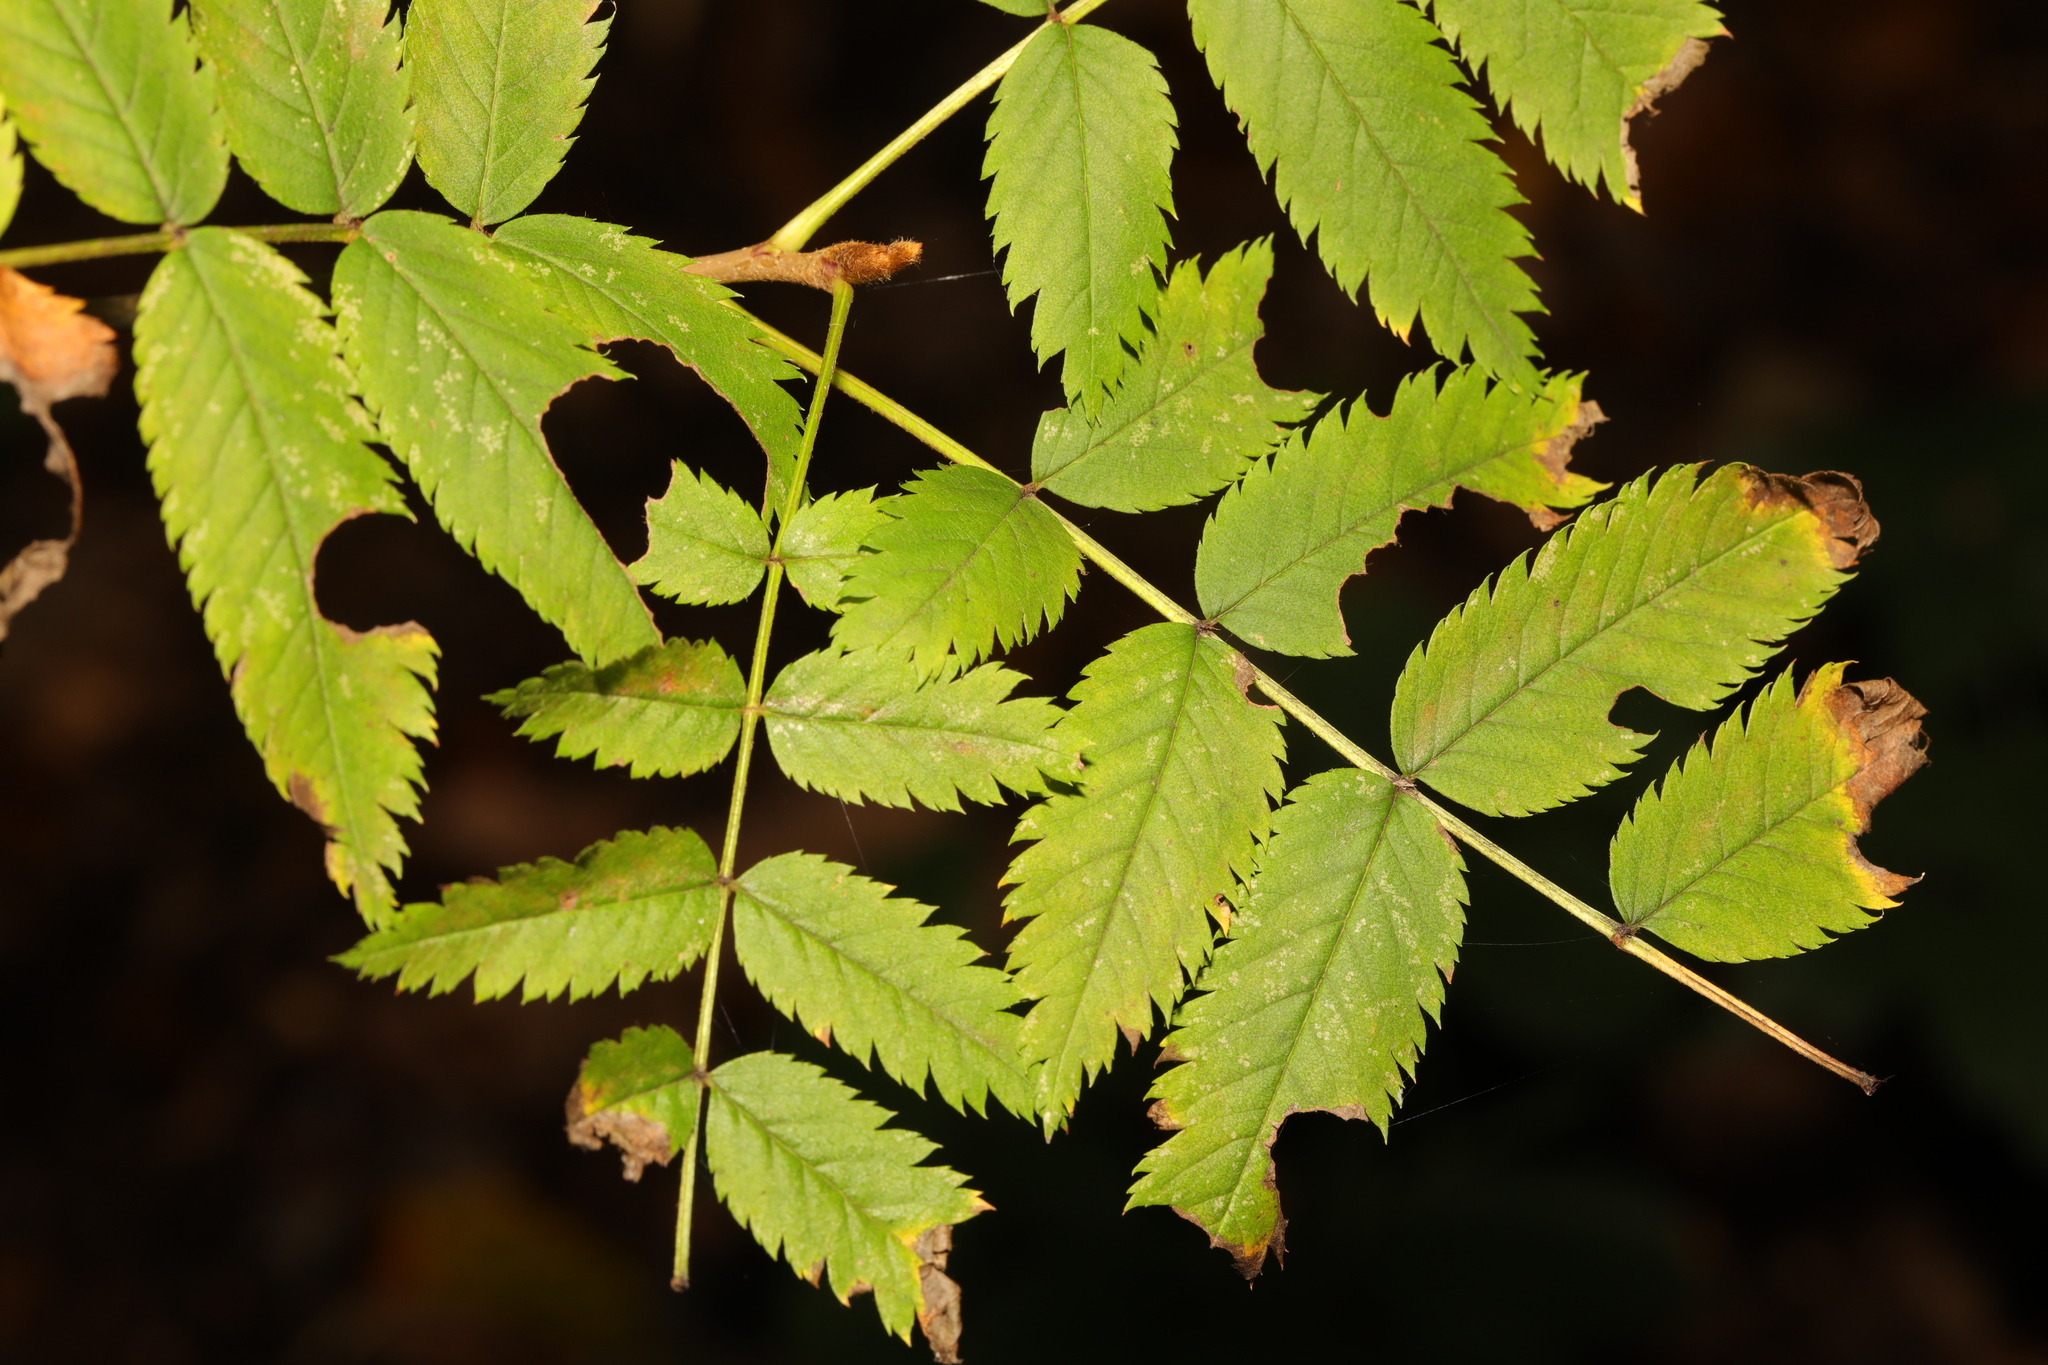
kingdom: Plantae
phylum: Tracheophyta
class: Magnoliopsida
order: Rosales
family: Rosaceae
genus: Sorbus
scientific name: Sorbus aucuparia
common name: Rowan
